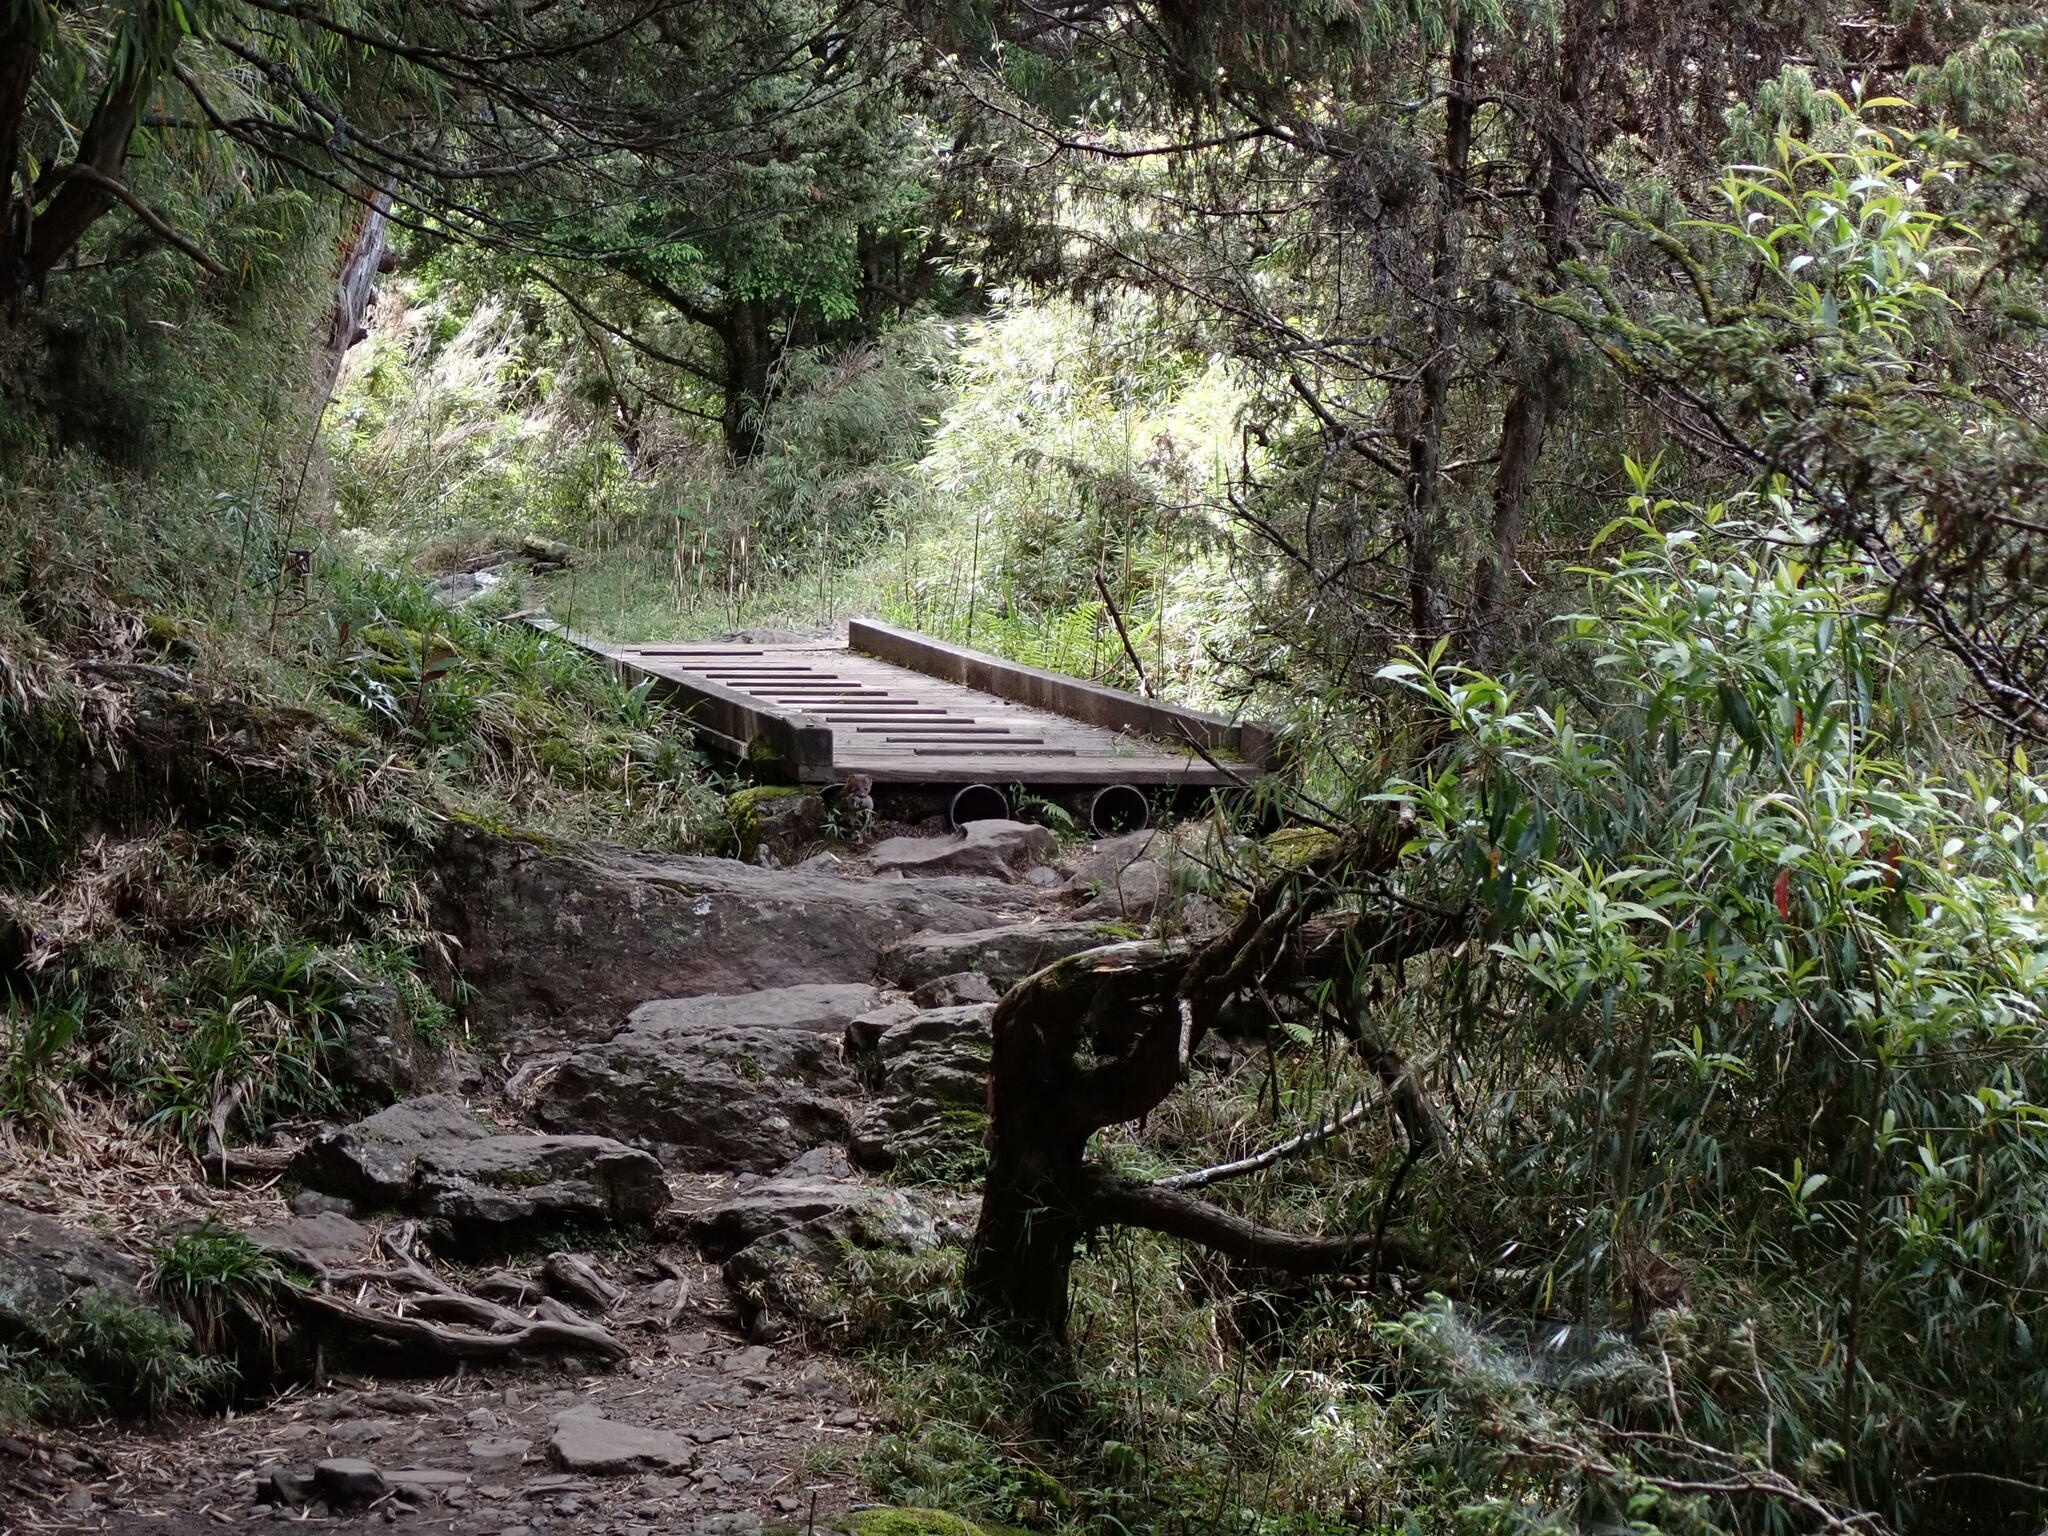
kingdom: Animalia
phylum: Chordata
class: Mammalia
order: Carnivora
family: Mustelidae
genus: Mustela
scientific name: Mustela sibirica
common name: Siberian weasel
